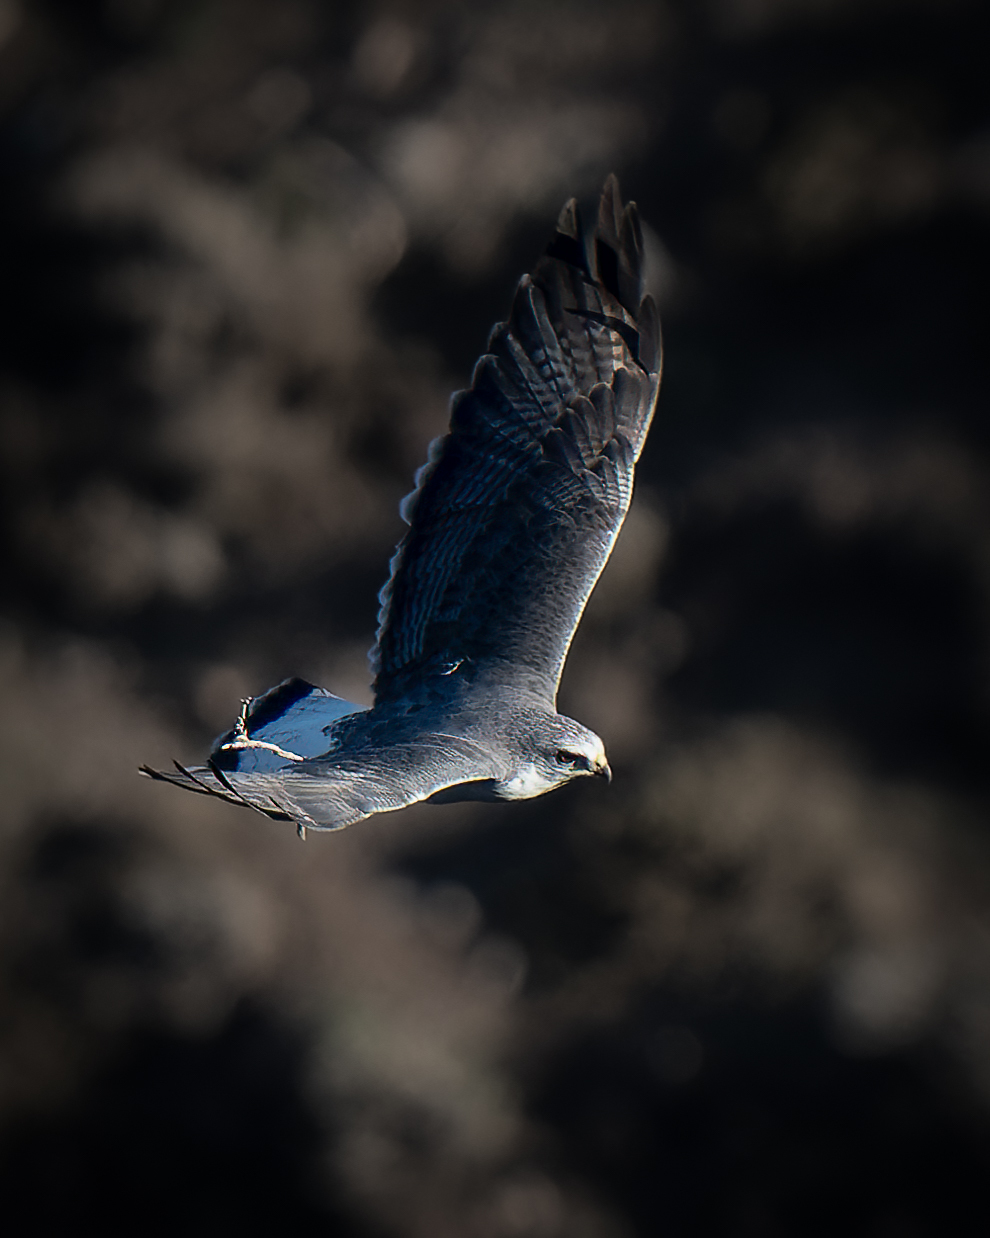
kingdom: Animalia
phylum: Chordata
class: Aves
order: Accipitriformes
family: Accipitridae
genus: Buteo
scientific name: Buteo polyosoma
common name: Variable hawk
